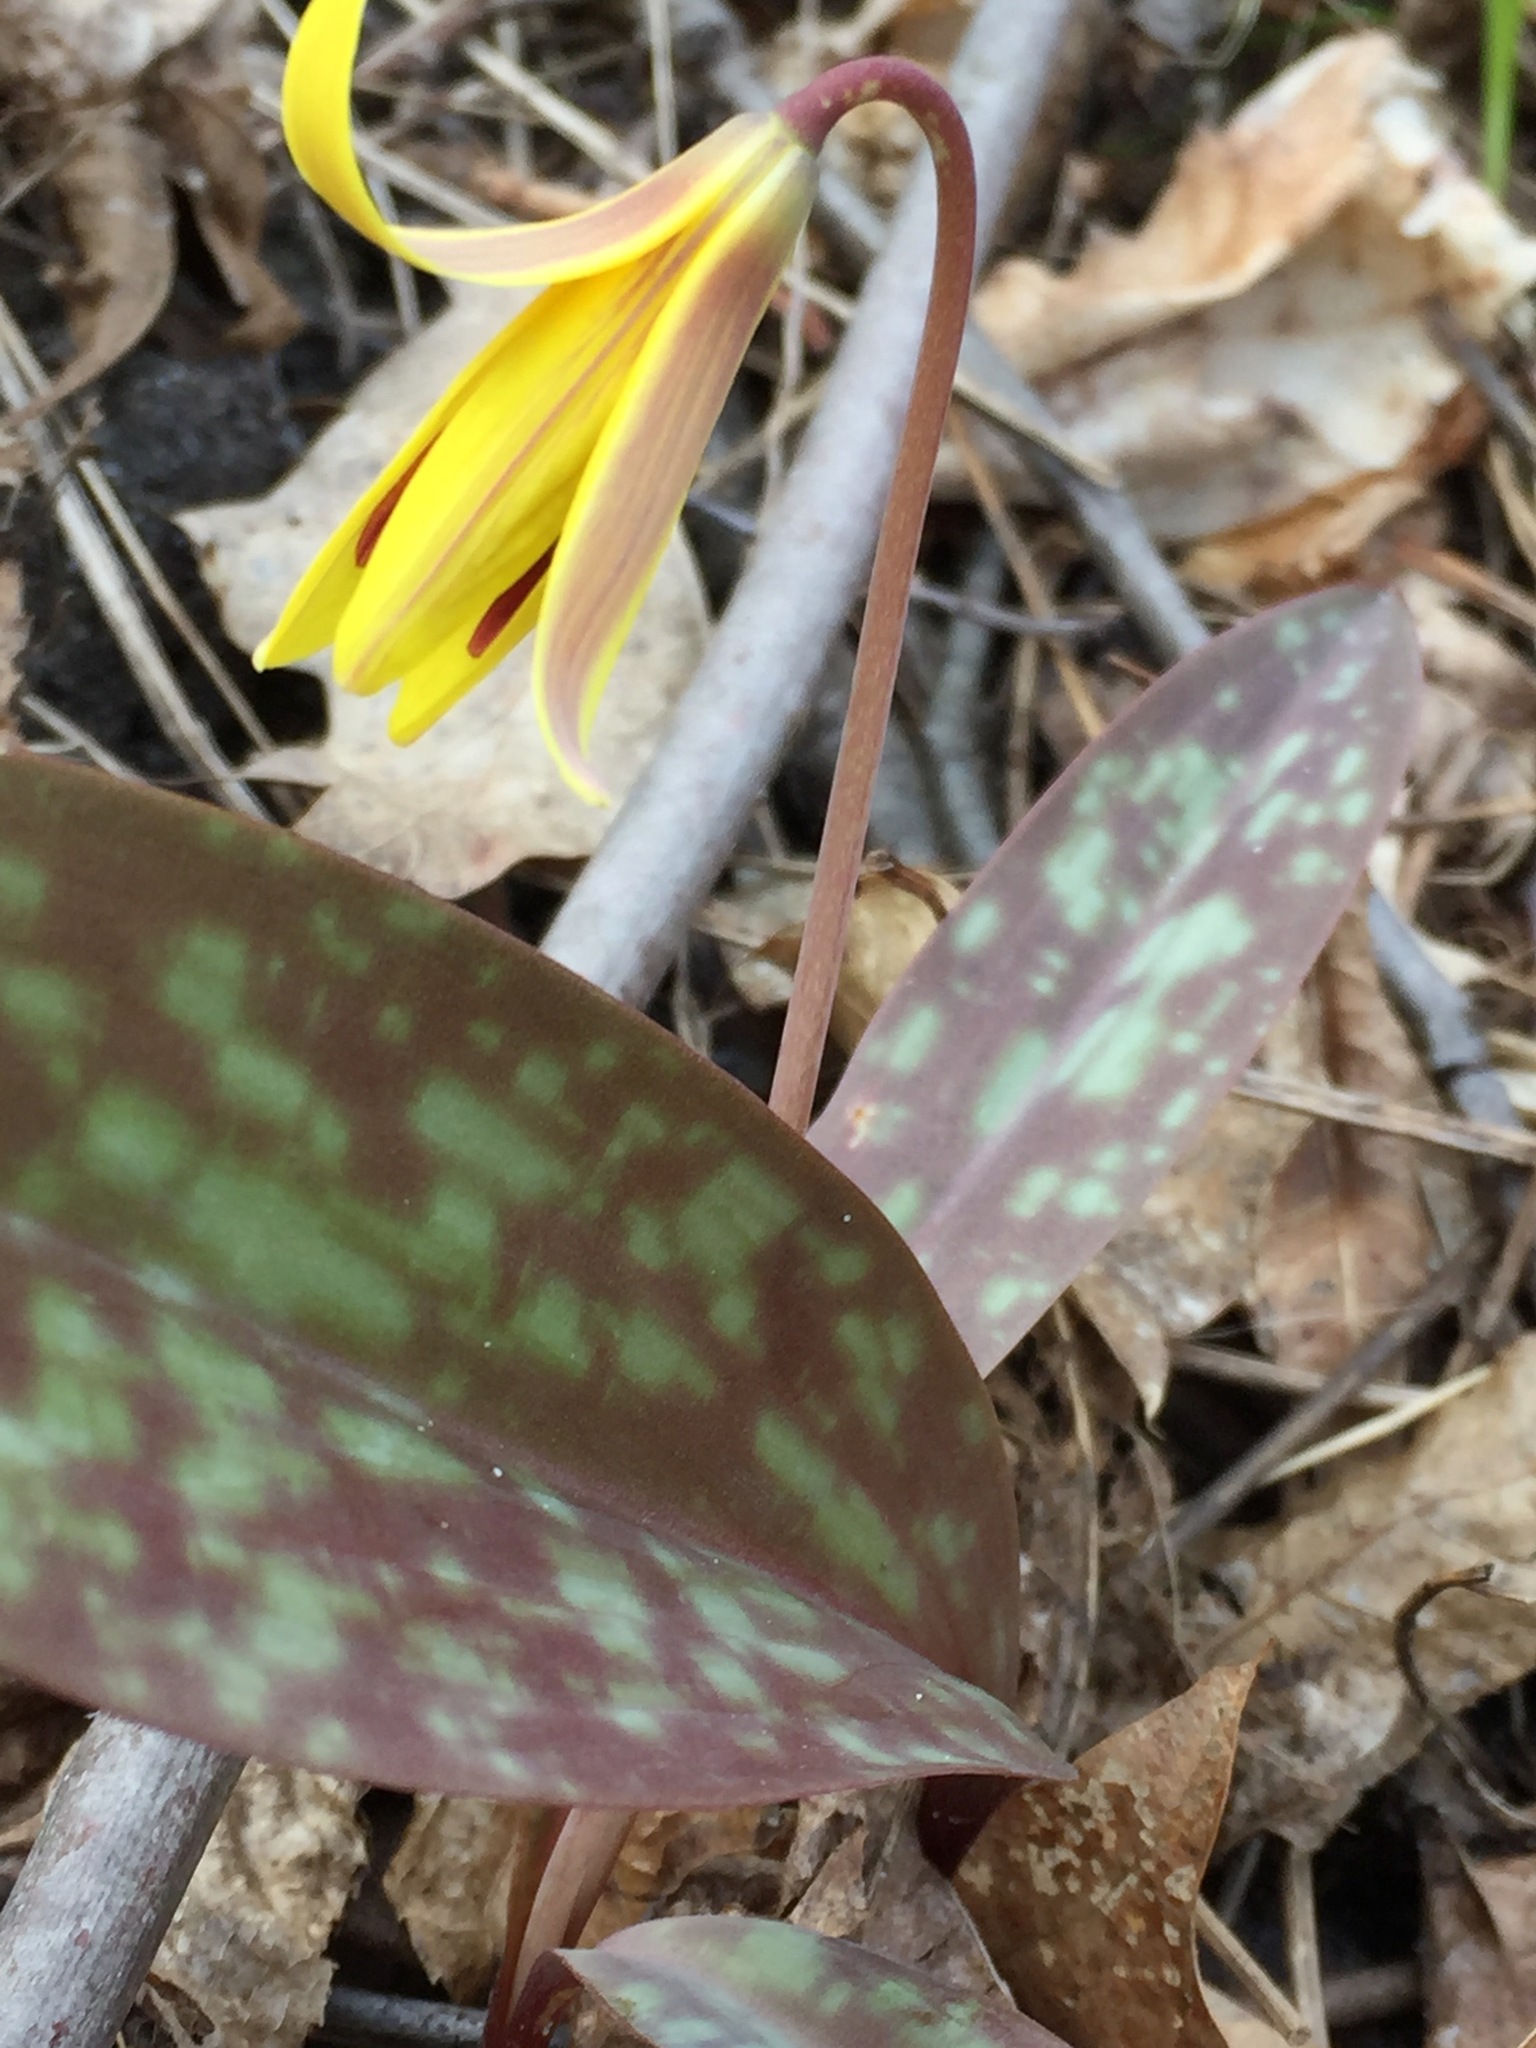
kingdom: Plantae
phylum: Tracheophyta
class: Liliopsida
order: Liliales
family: Liliaceae
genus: Erythronium
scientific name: Erythronium americanum
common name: Yellow adder's-tongue
